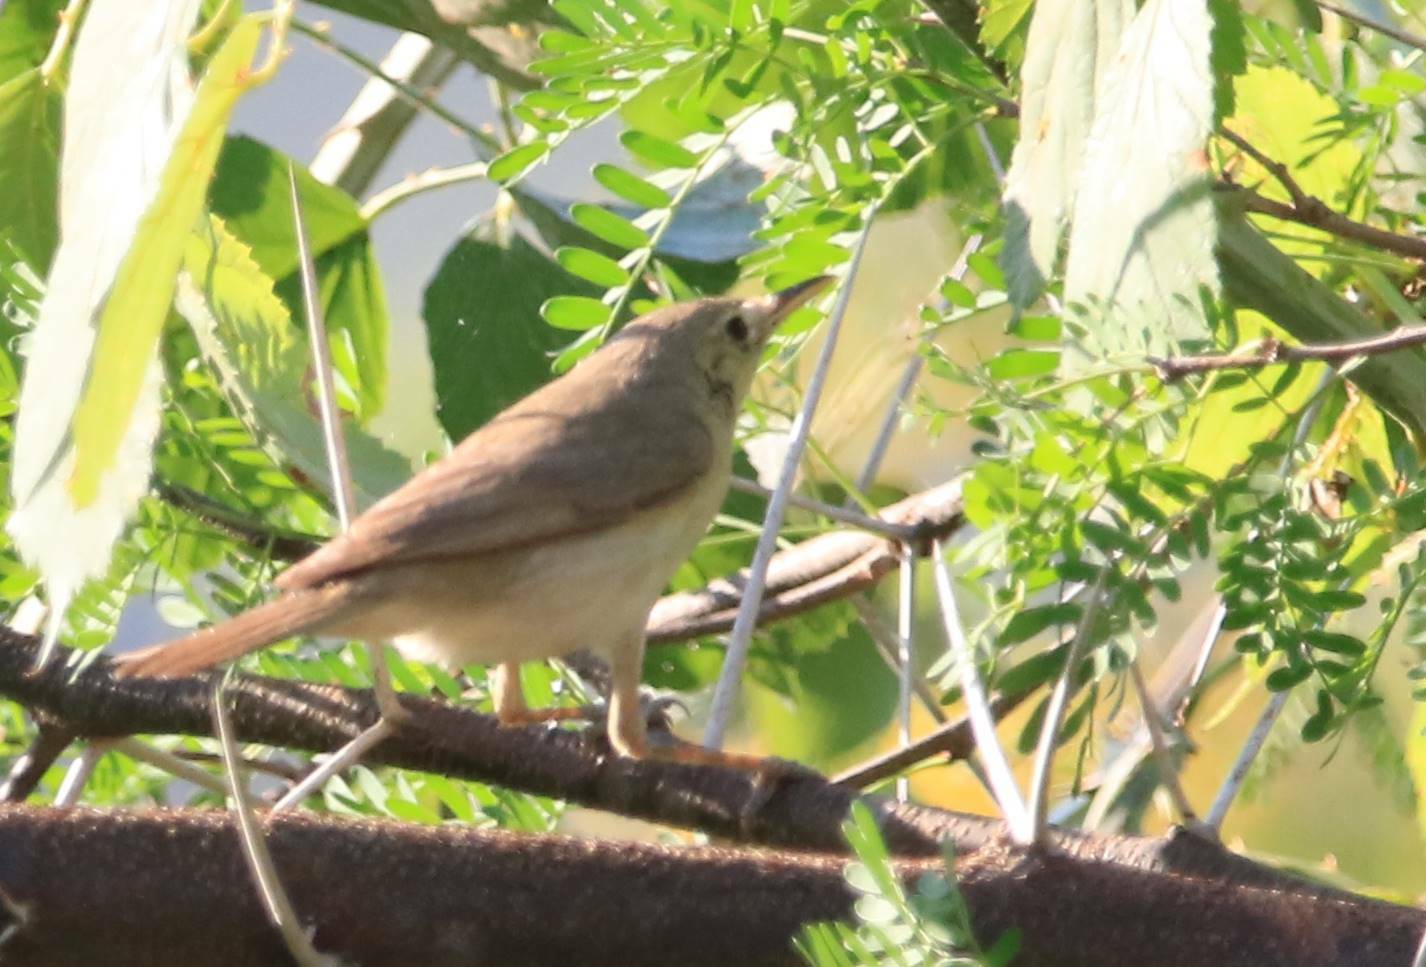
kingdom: Animalia
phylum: Chordata
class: Aves
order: Passeriformes
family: Acrocephalidae
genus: Acrocephalus
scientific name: Acrocephalus scirpaceus
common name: Eurasian reed warbler
